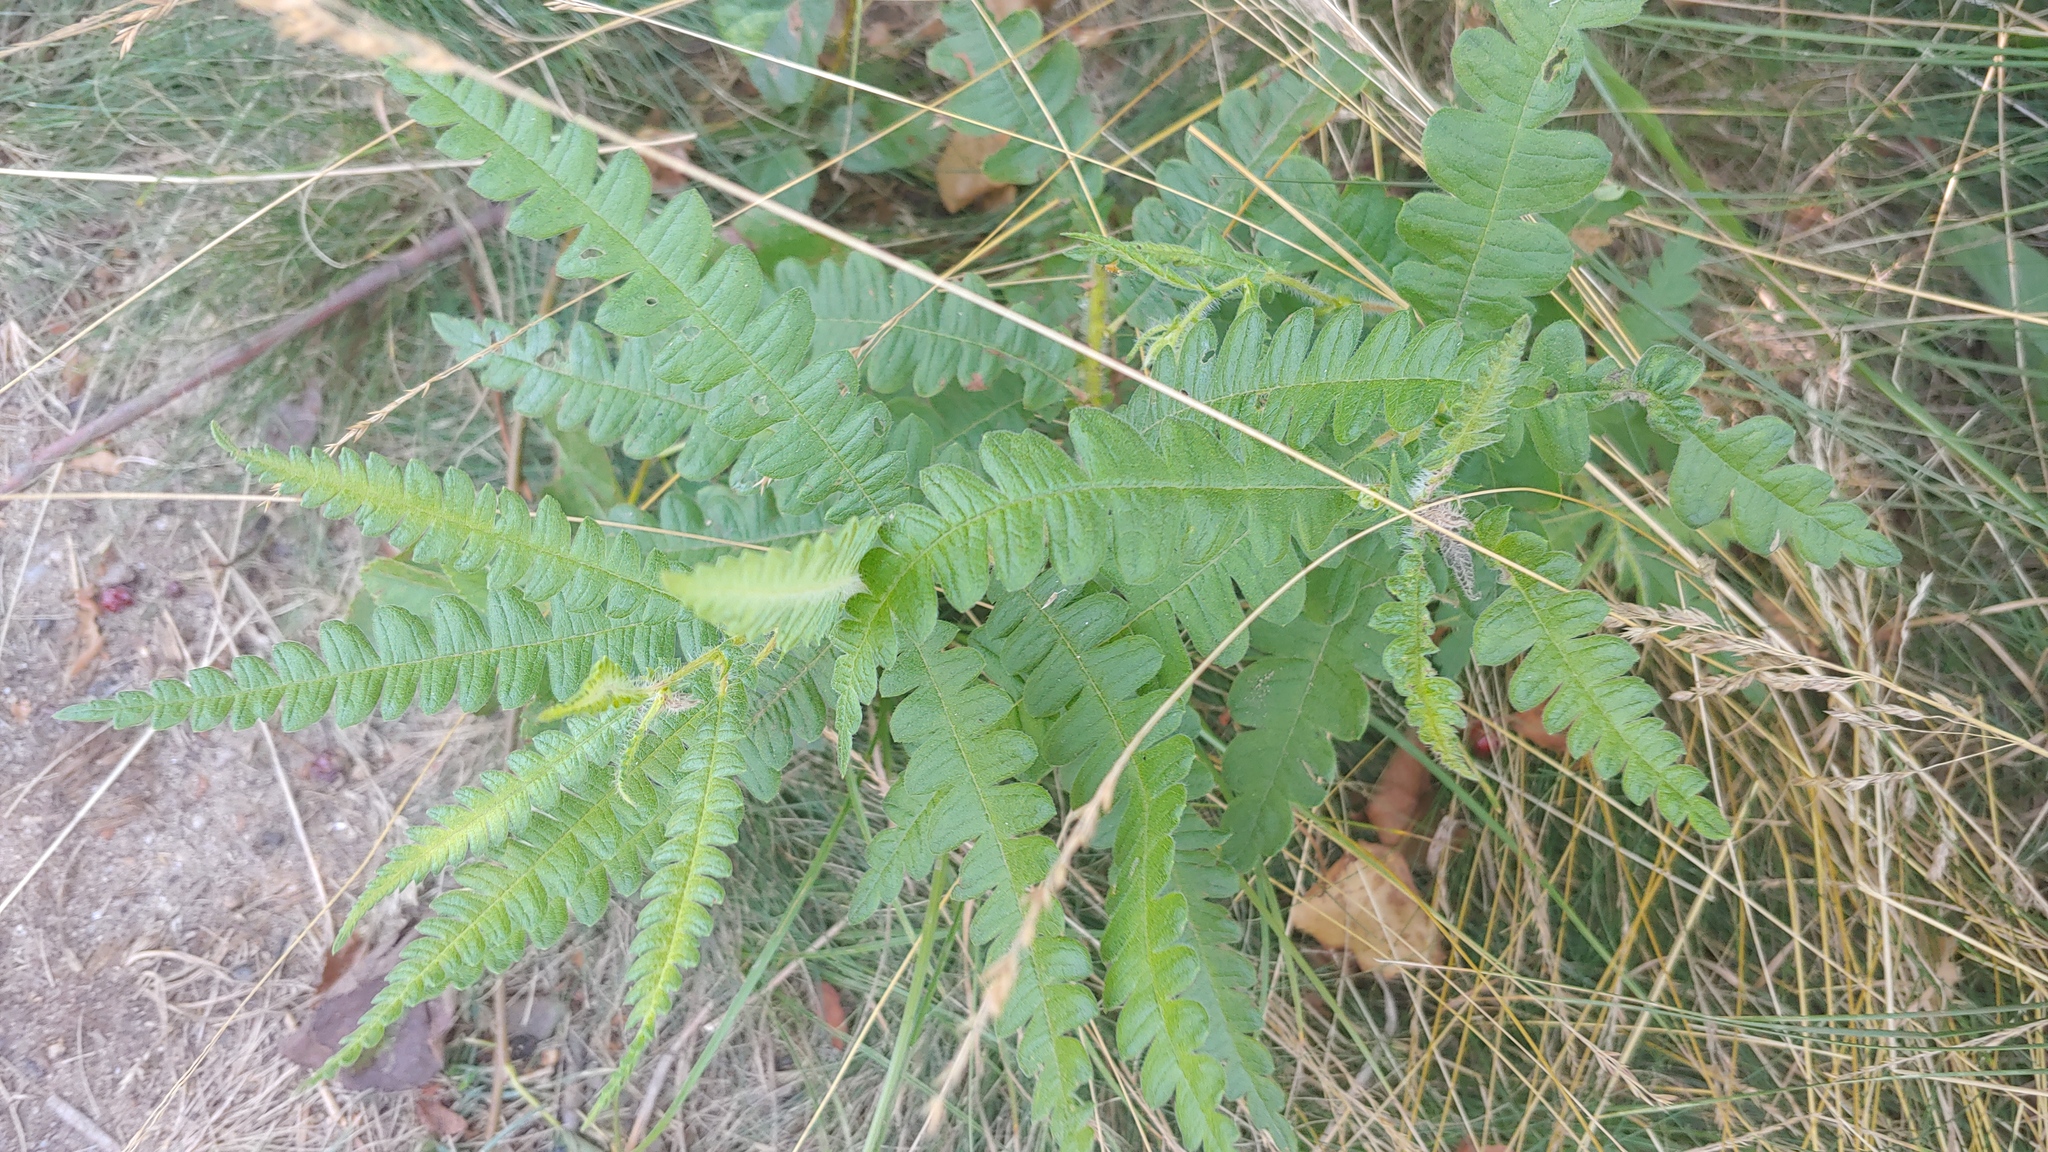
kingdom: Plantae
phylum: Tracheophyta
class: Magnoliopsida
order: Fagales
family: Myricaceae
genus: Comptonia
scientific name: Comptonia peregrina
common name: Sweet-fern
